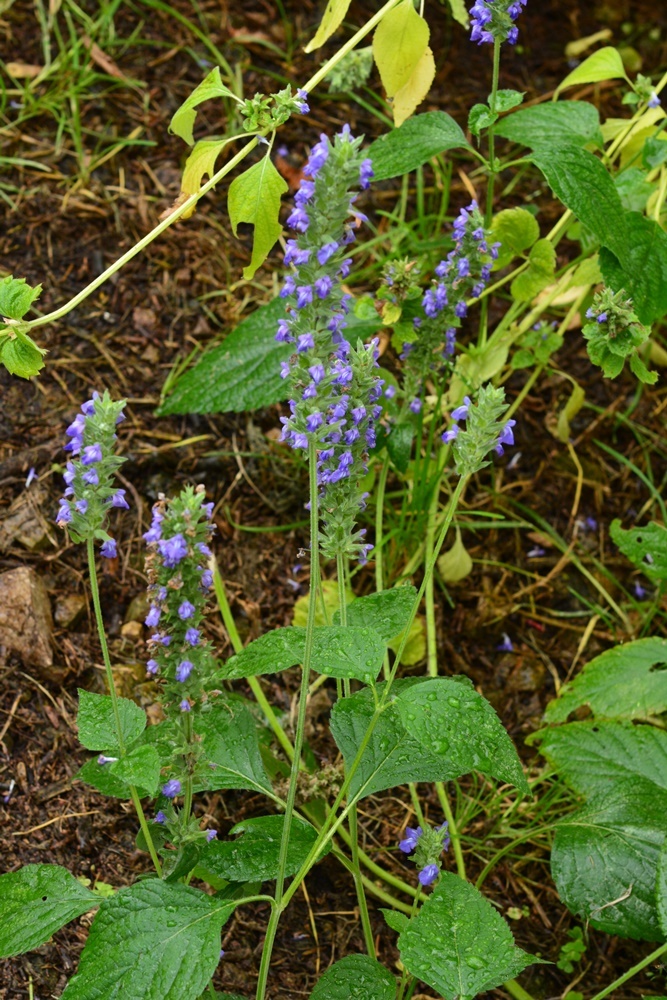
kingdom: Plantae
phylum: Tracheophyta
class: Magnoliopsida
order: Lamiales
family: Lamiaceae
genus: Salvia
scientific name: Salvia hispanica
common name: Chia
